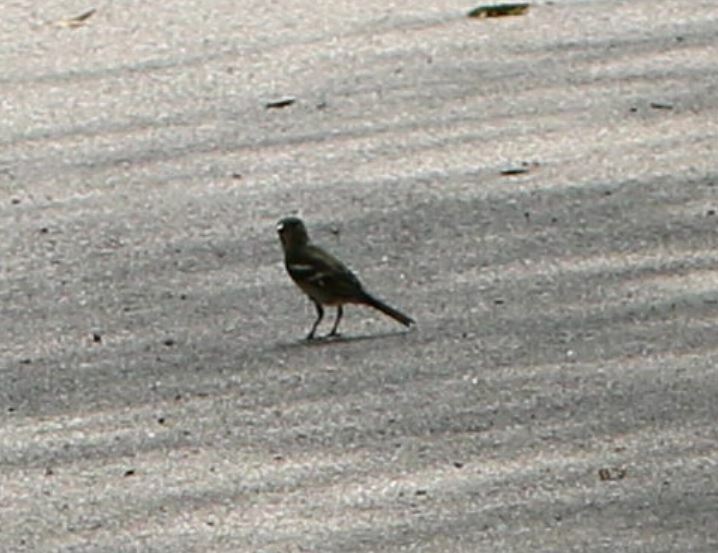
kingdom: Animalia
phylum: Chordata
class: Aves
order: Passeriformes
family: Fringillidae
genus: Fringilla
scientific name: Fringilla coelebs
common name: Common chaffinch
